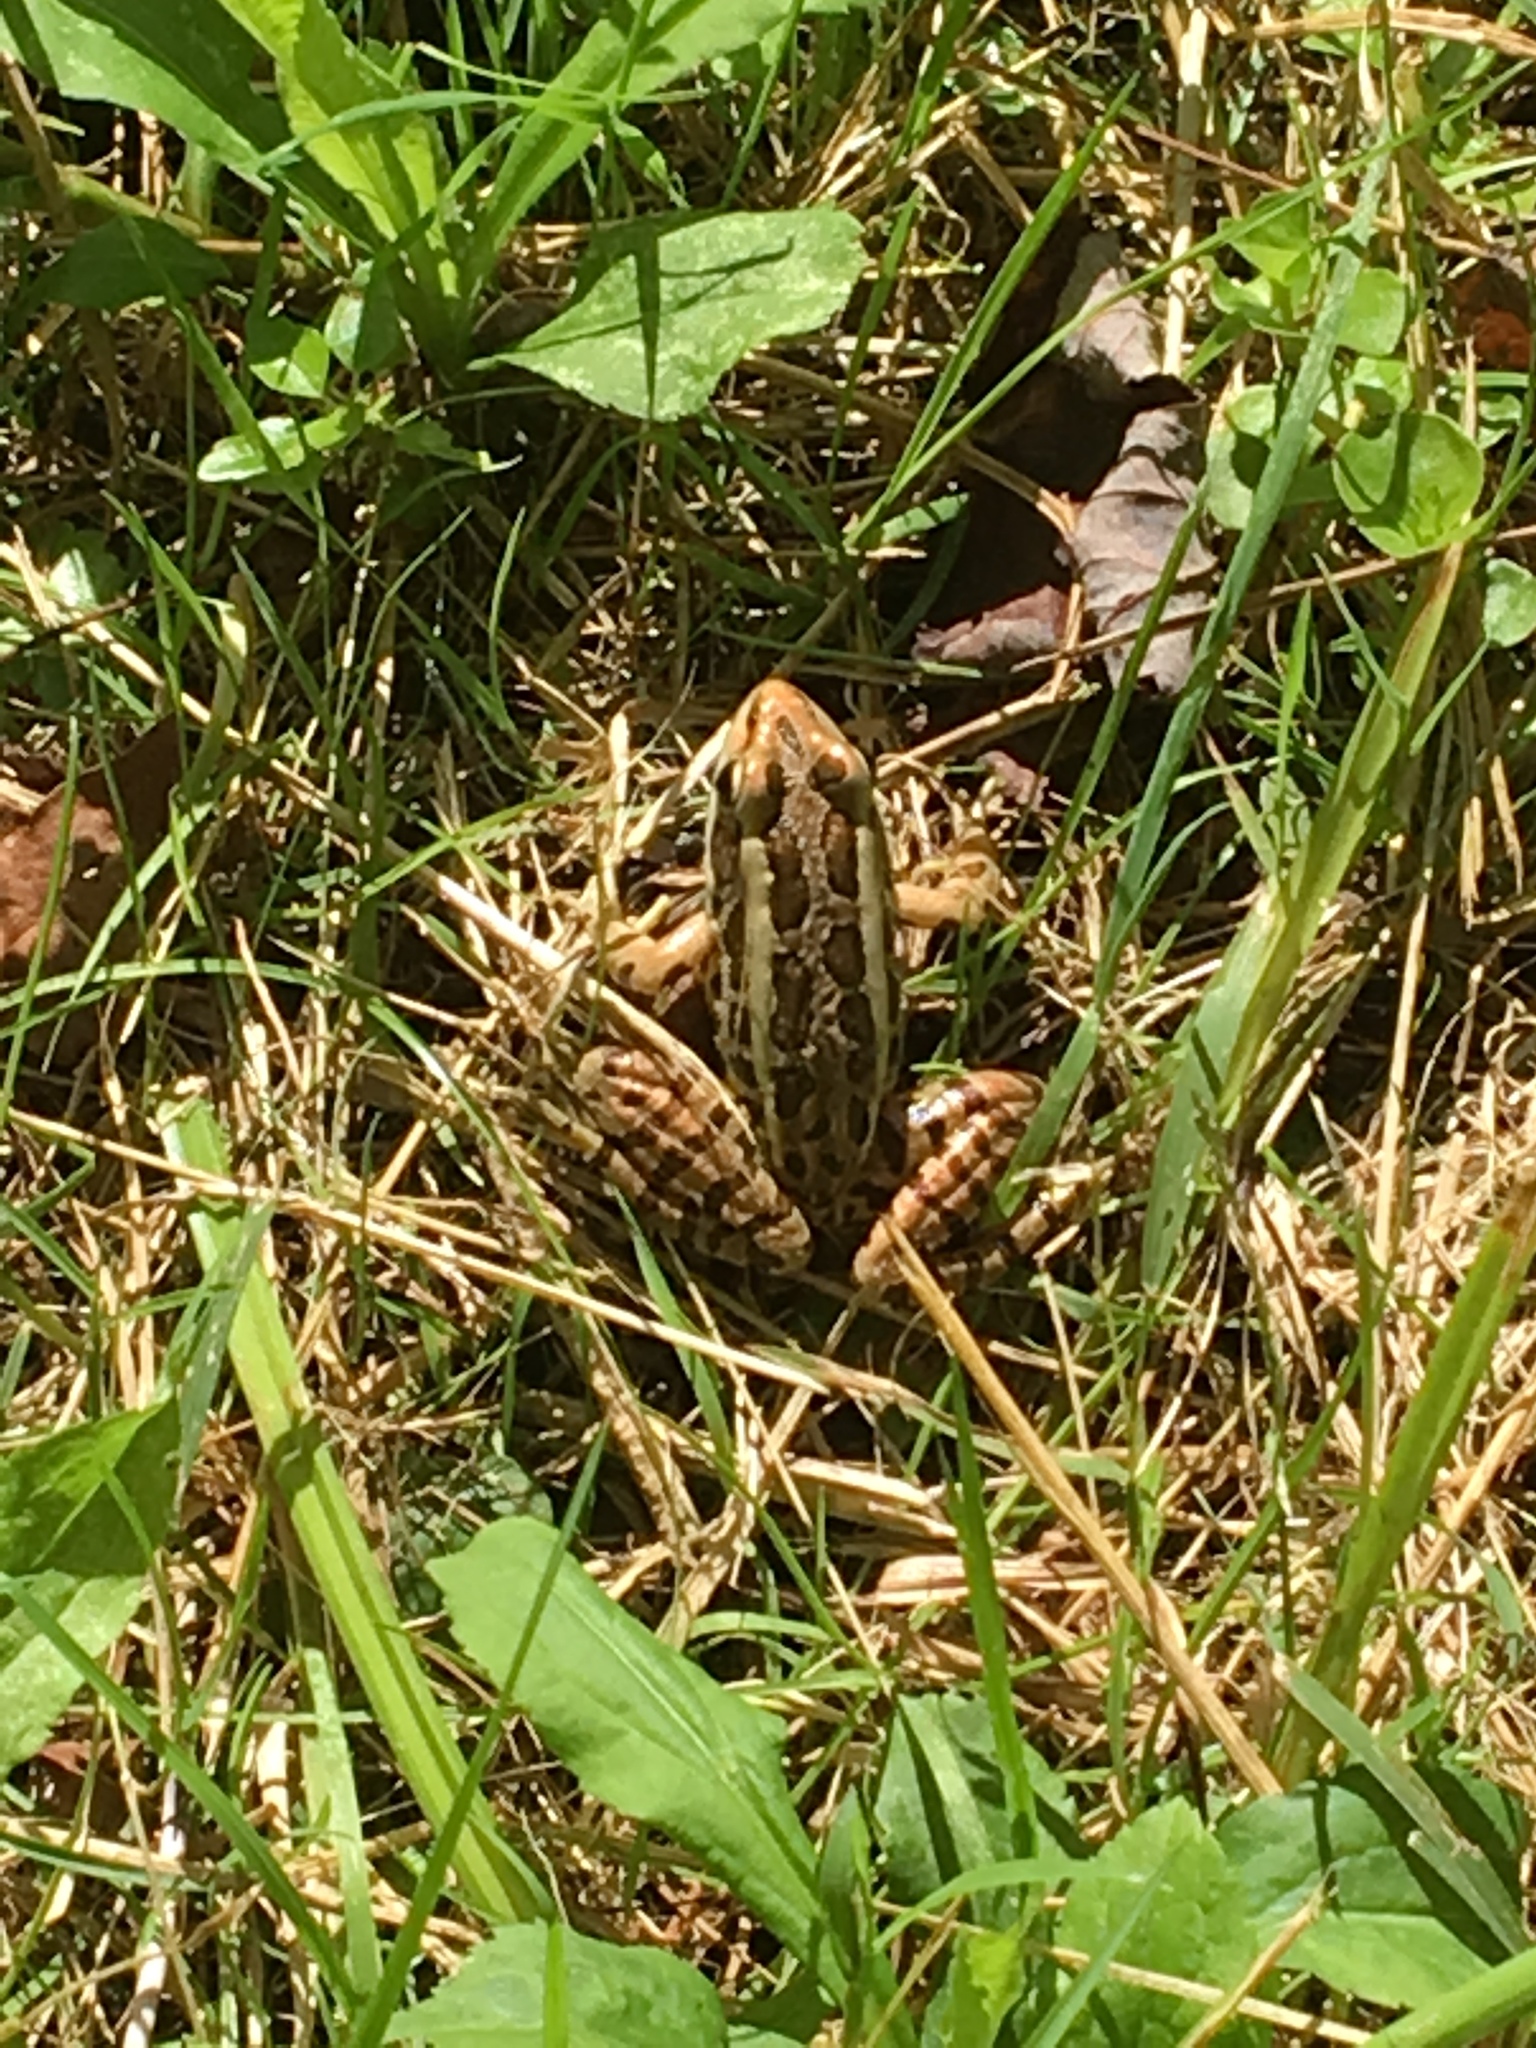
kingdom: Animalia
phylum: Chordata
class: Amphibia
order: Anura
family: Ranidae
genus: Lithobates
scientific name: Lithobates palustris
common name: Pickerel frog
